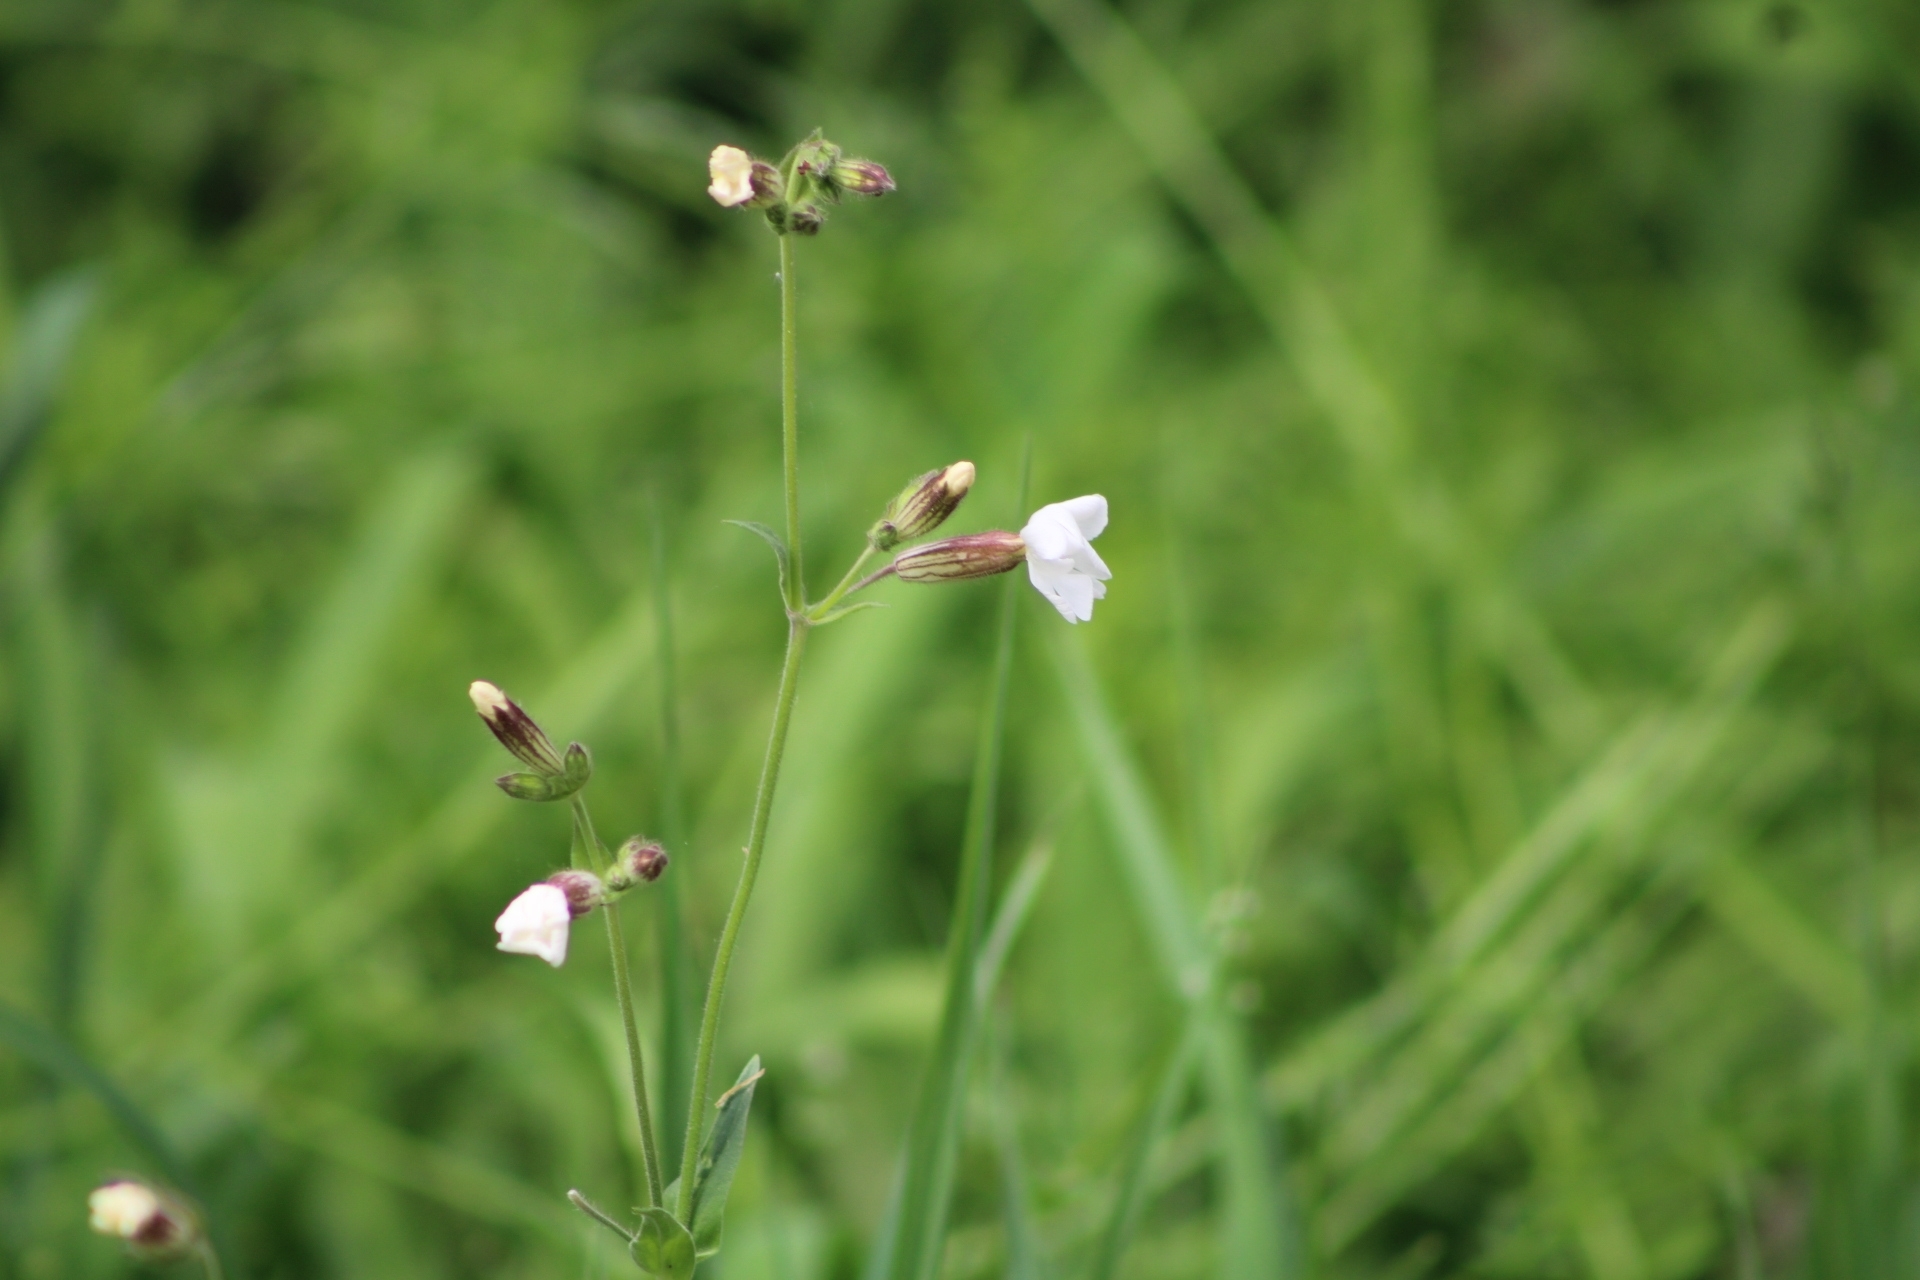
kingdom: Plantae
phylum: Tracheophyta
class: Magnoliopsida
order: Caryophyllales
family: Caryophyllaceae
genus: Silene
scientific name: Silene latifolia
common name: White campion
